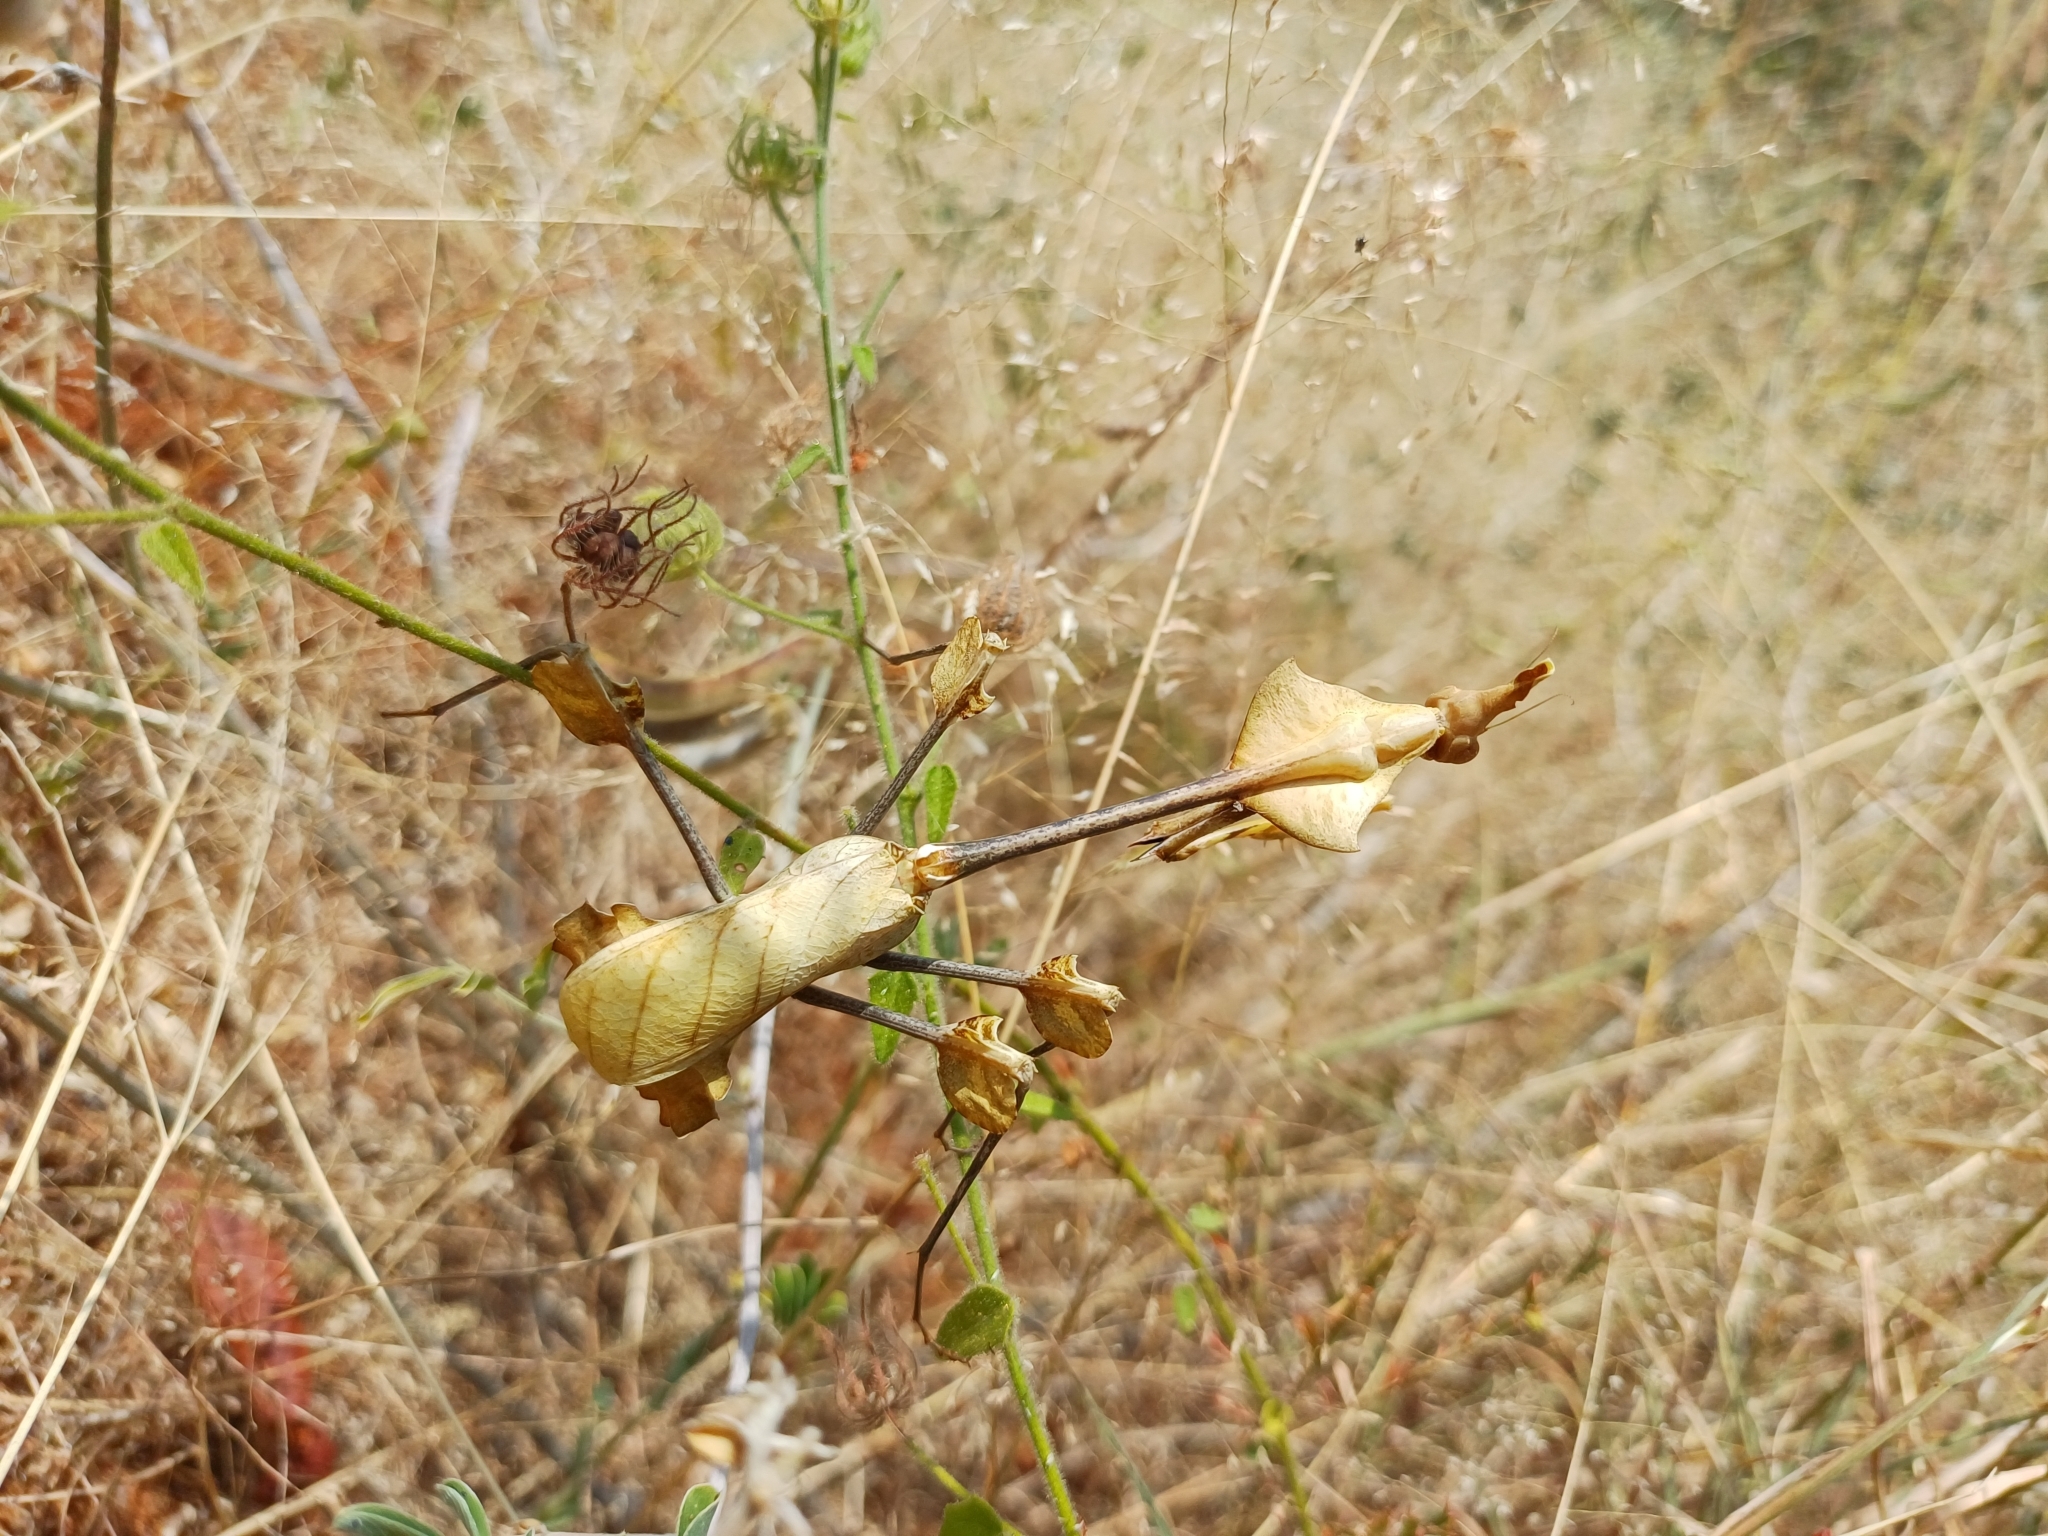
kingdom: Animalia
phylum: Arthropoda
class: Insecta
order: Mantodea
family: Empusidae
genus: Gongylus
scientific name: Gongylus gongylodes
